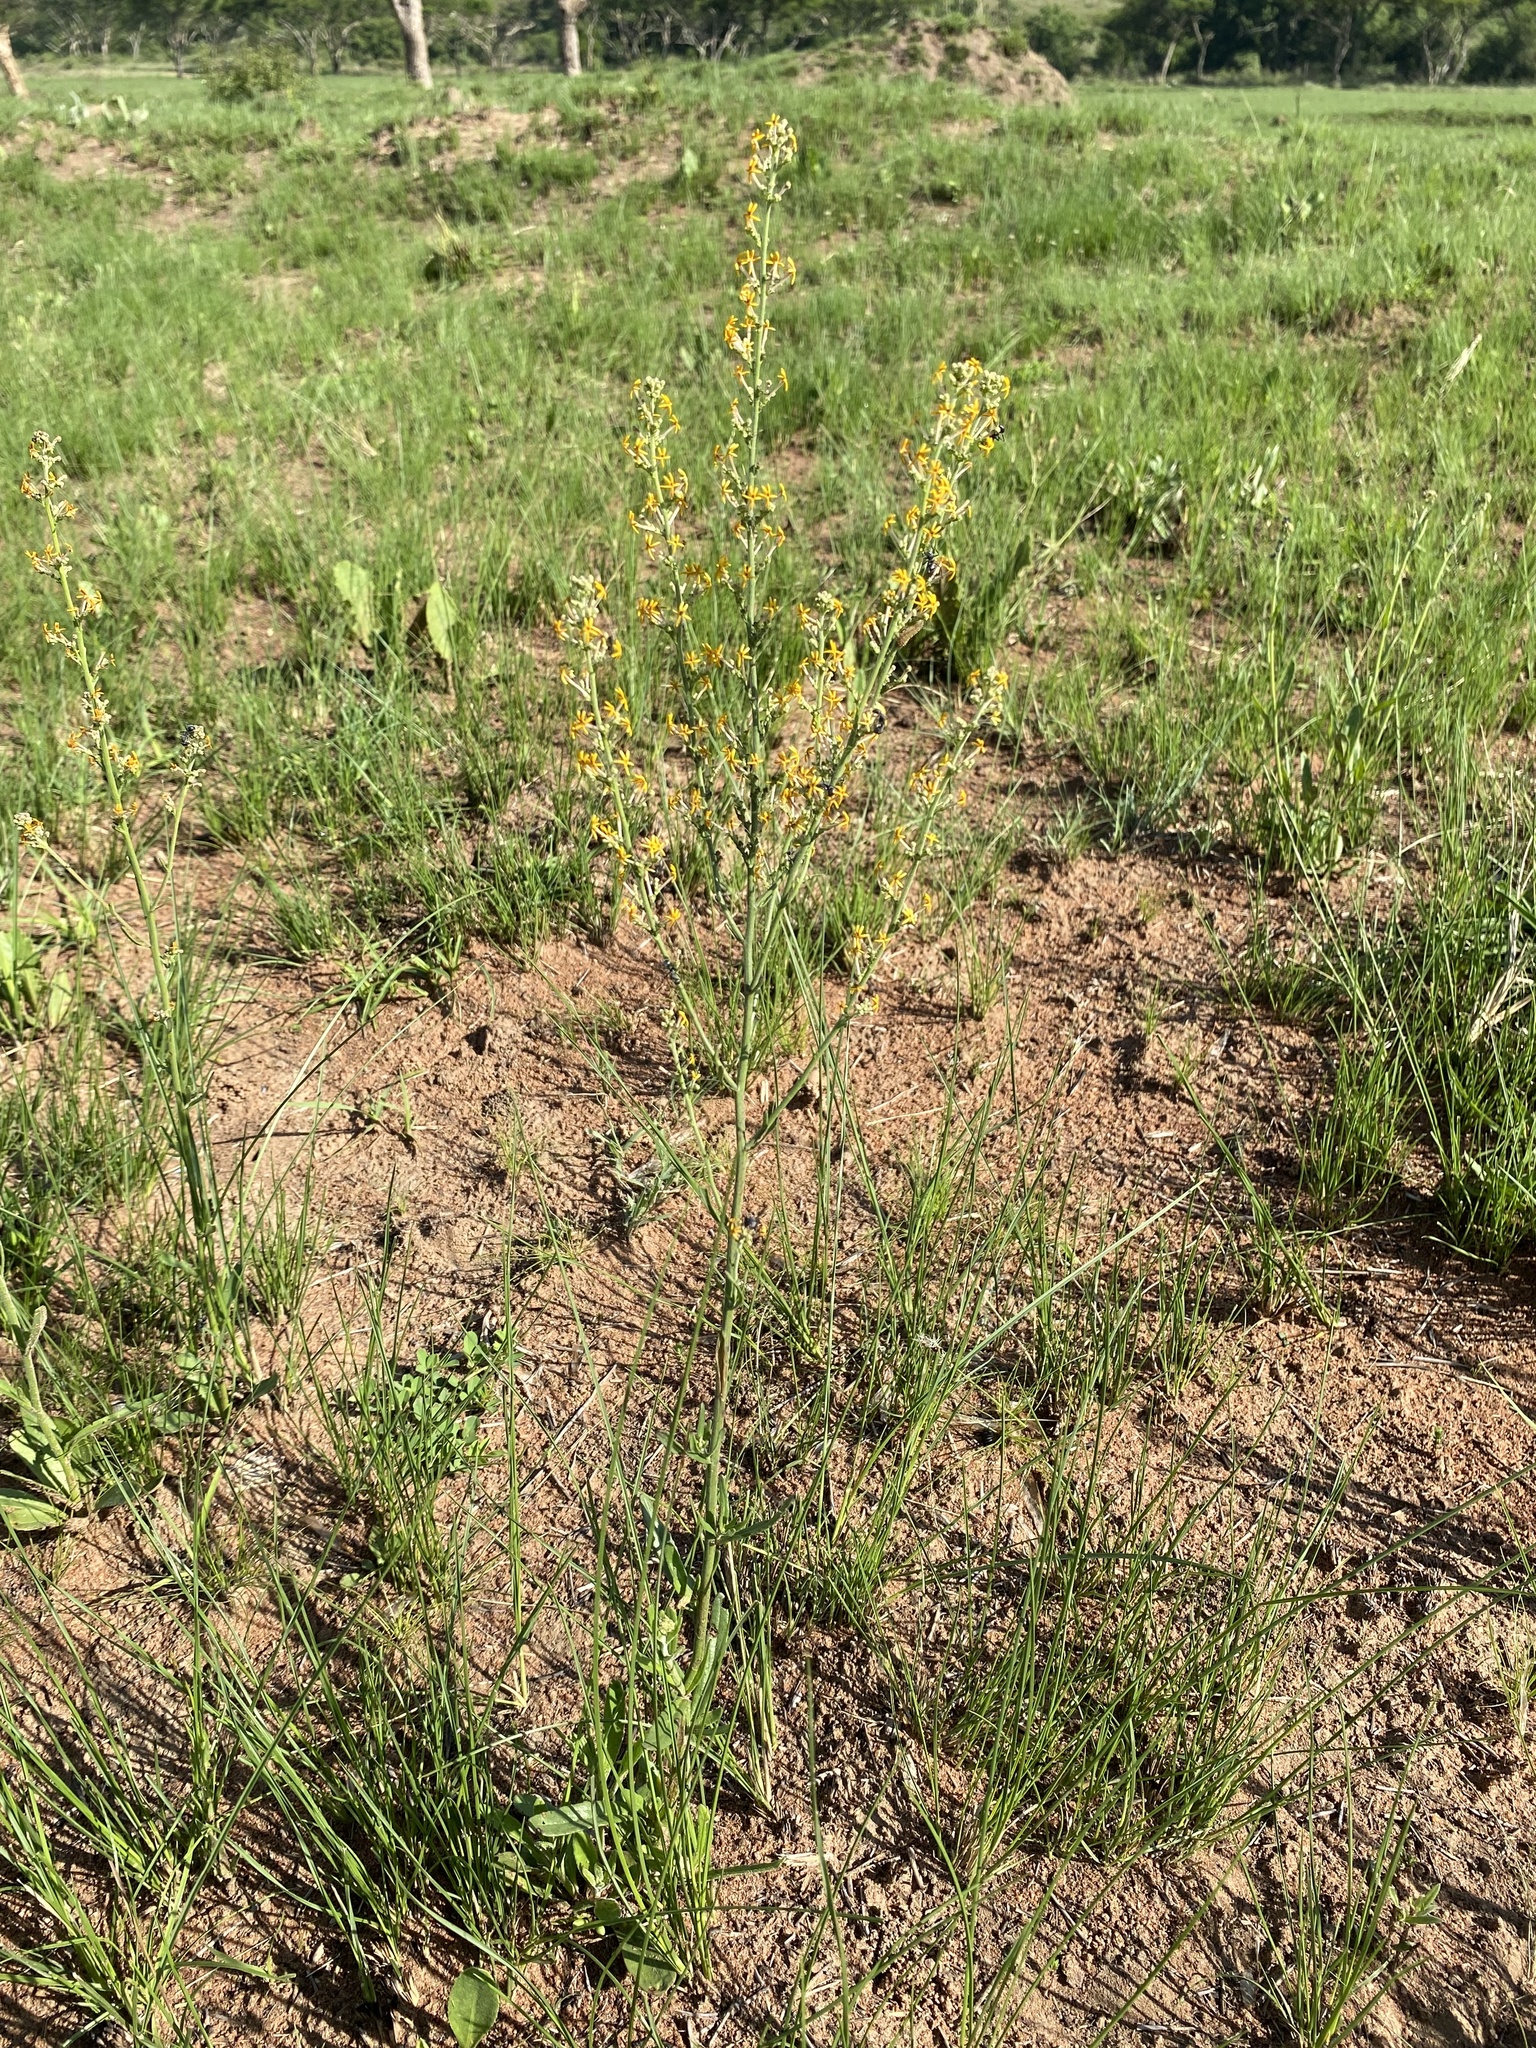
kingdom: Plantae
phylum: Tracheophyta
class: Magnoliopsida
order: Lamiales
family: Scrophulariaceae
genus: Manulea
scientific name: Manulea parviflora
